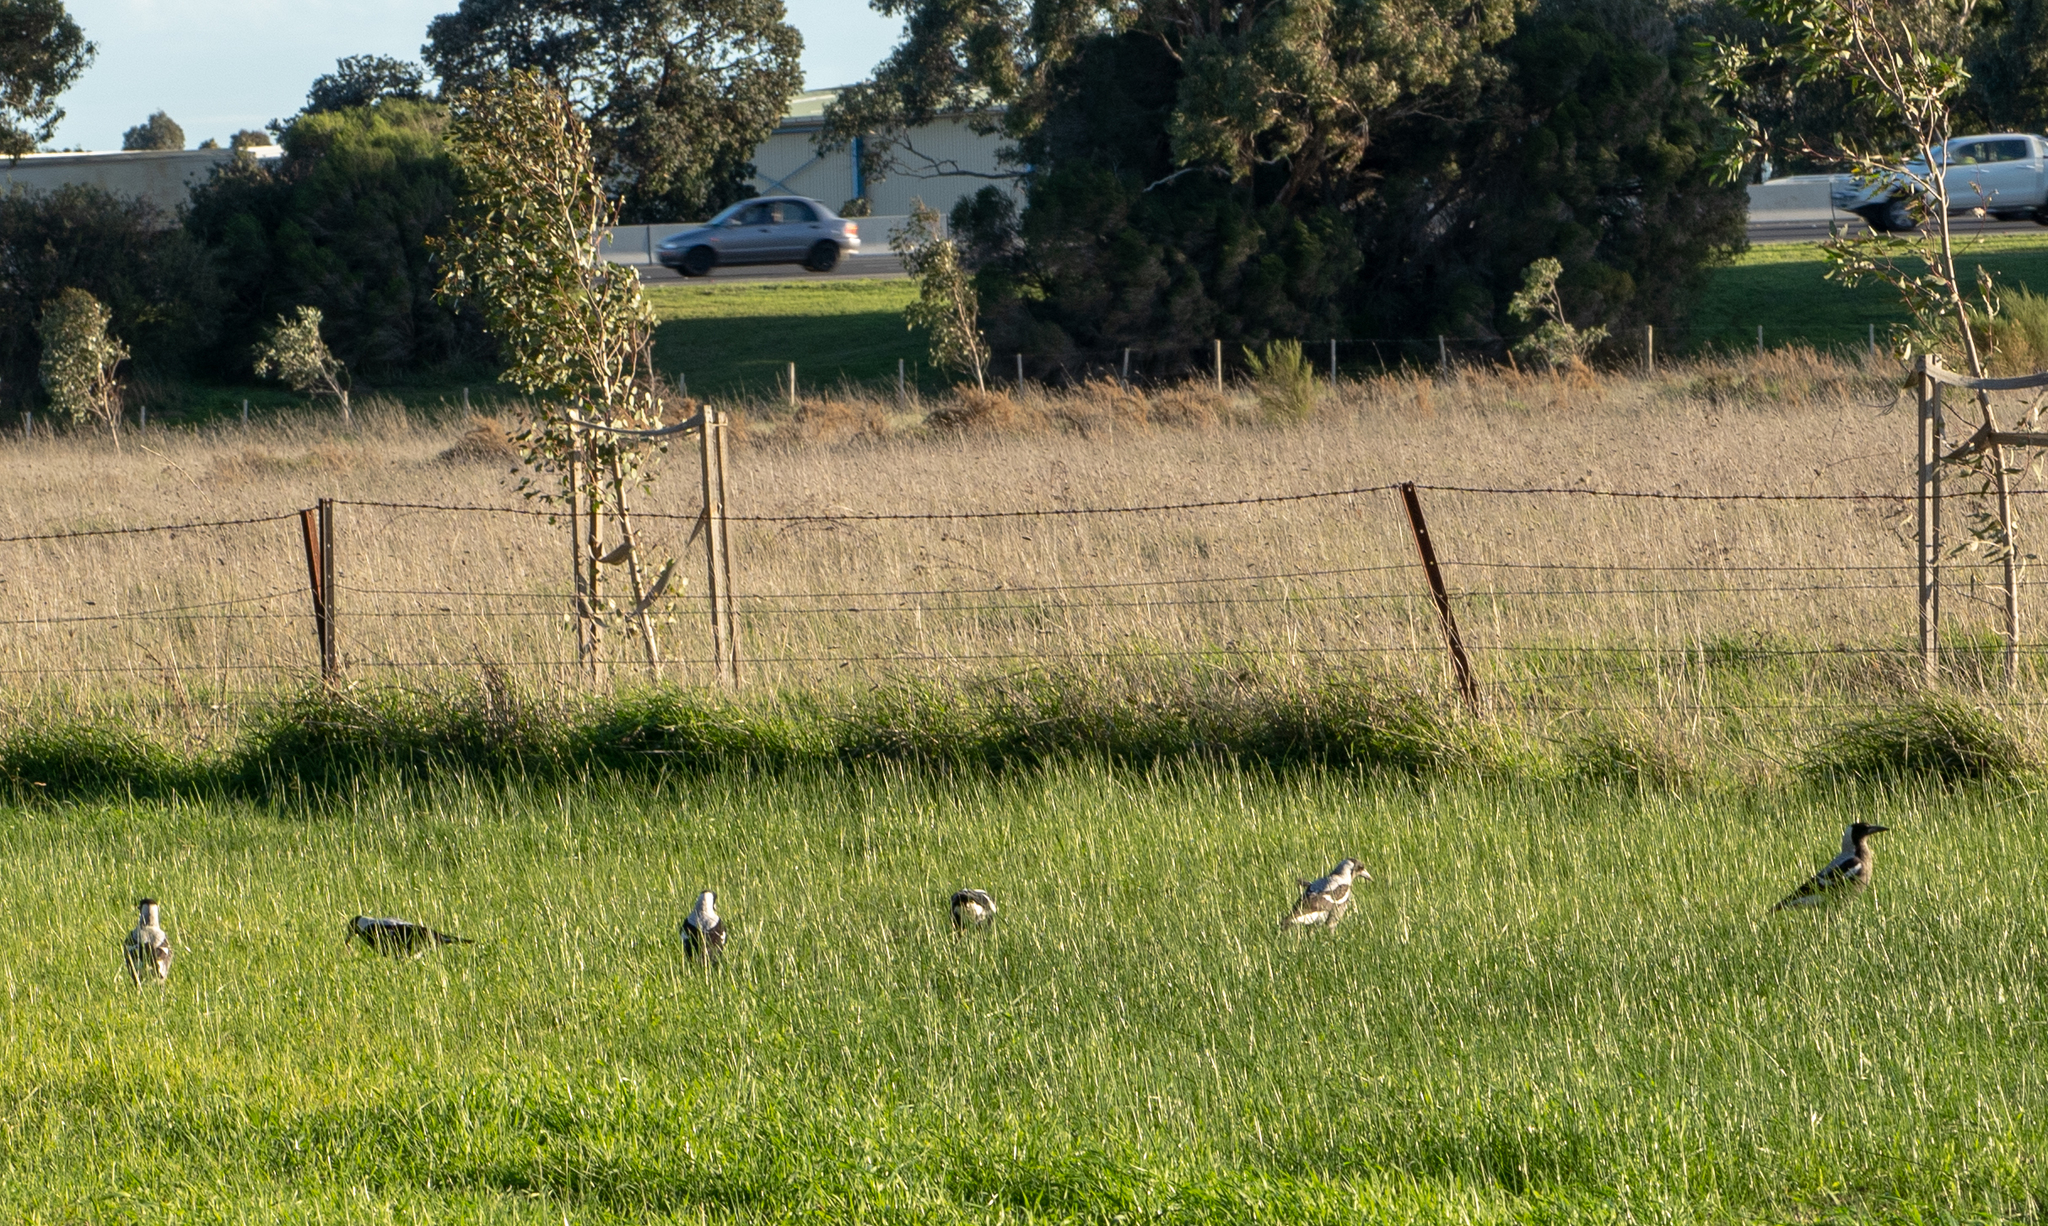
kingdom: Animalia
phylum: Chordata
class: Aves
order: Passeriformes
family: Cracticidae
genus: Gymnorhina
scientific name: Gymnorhina tibicen
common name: Australian magpie
